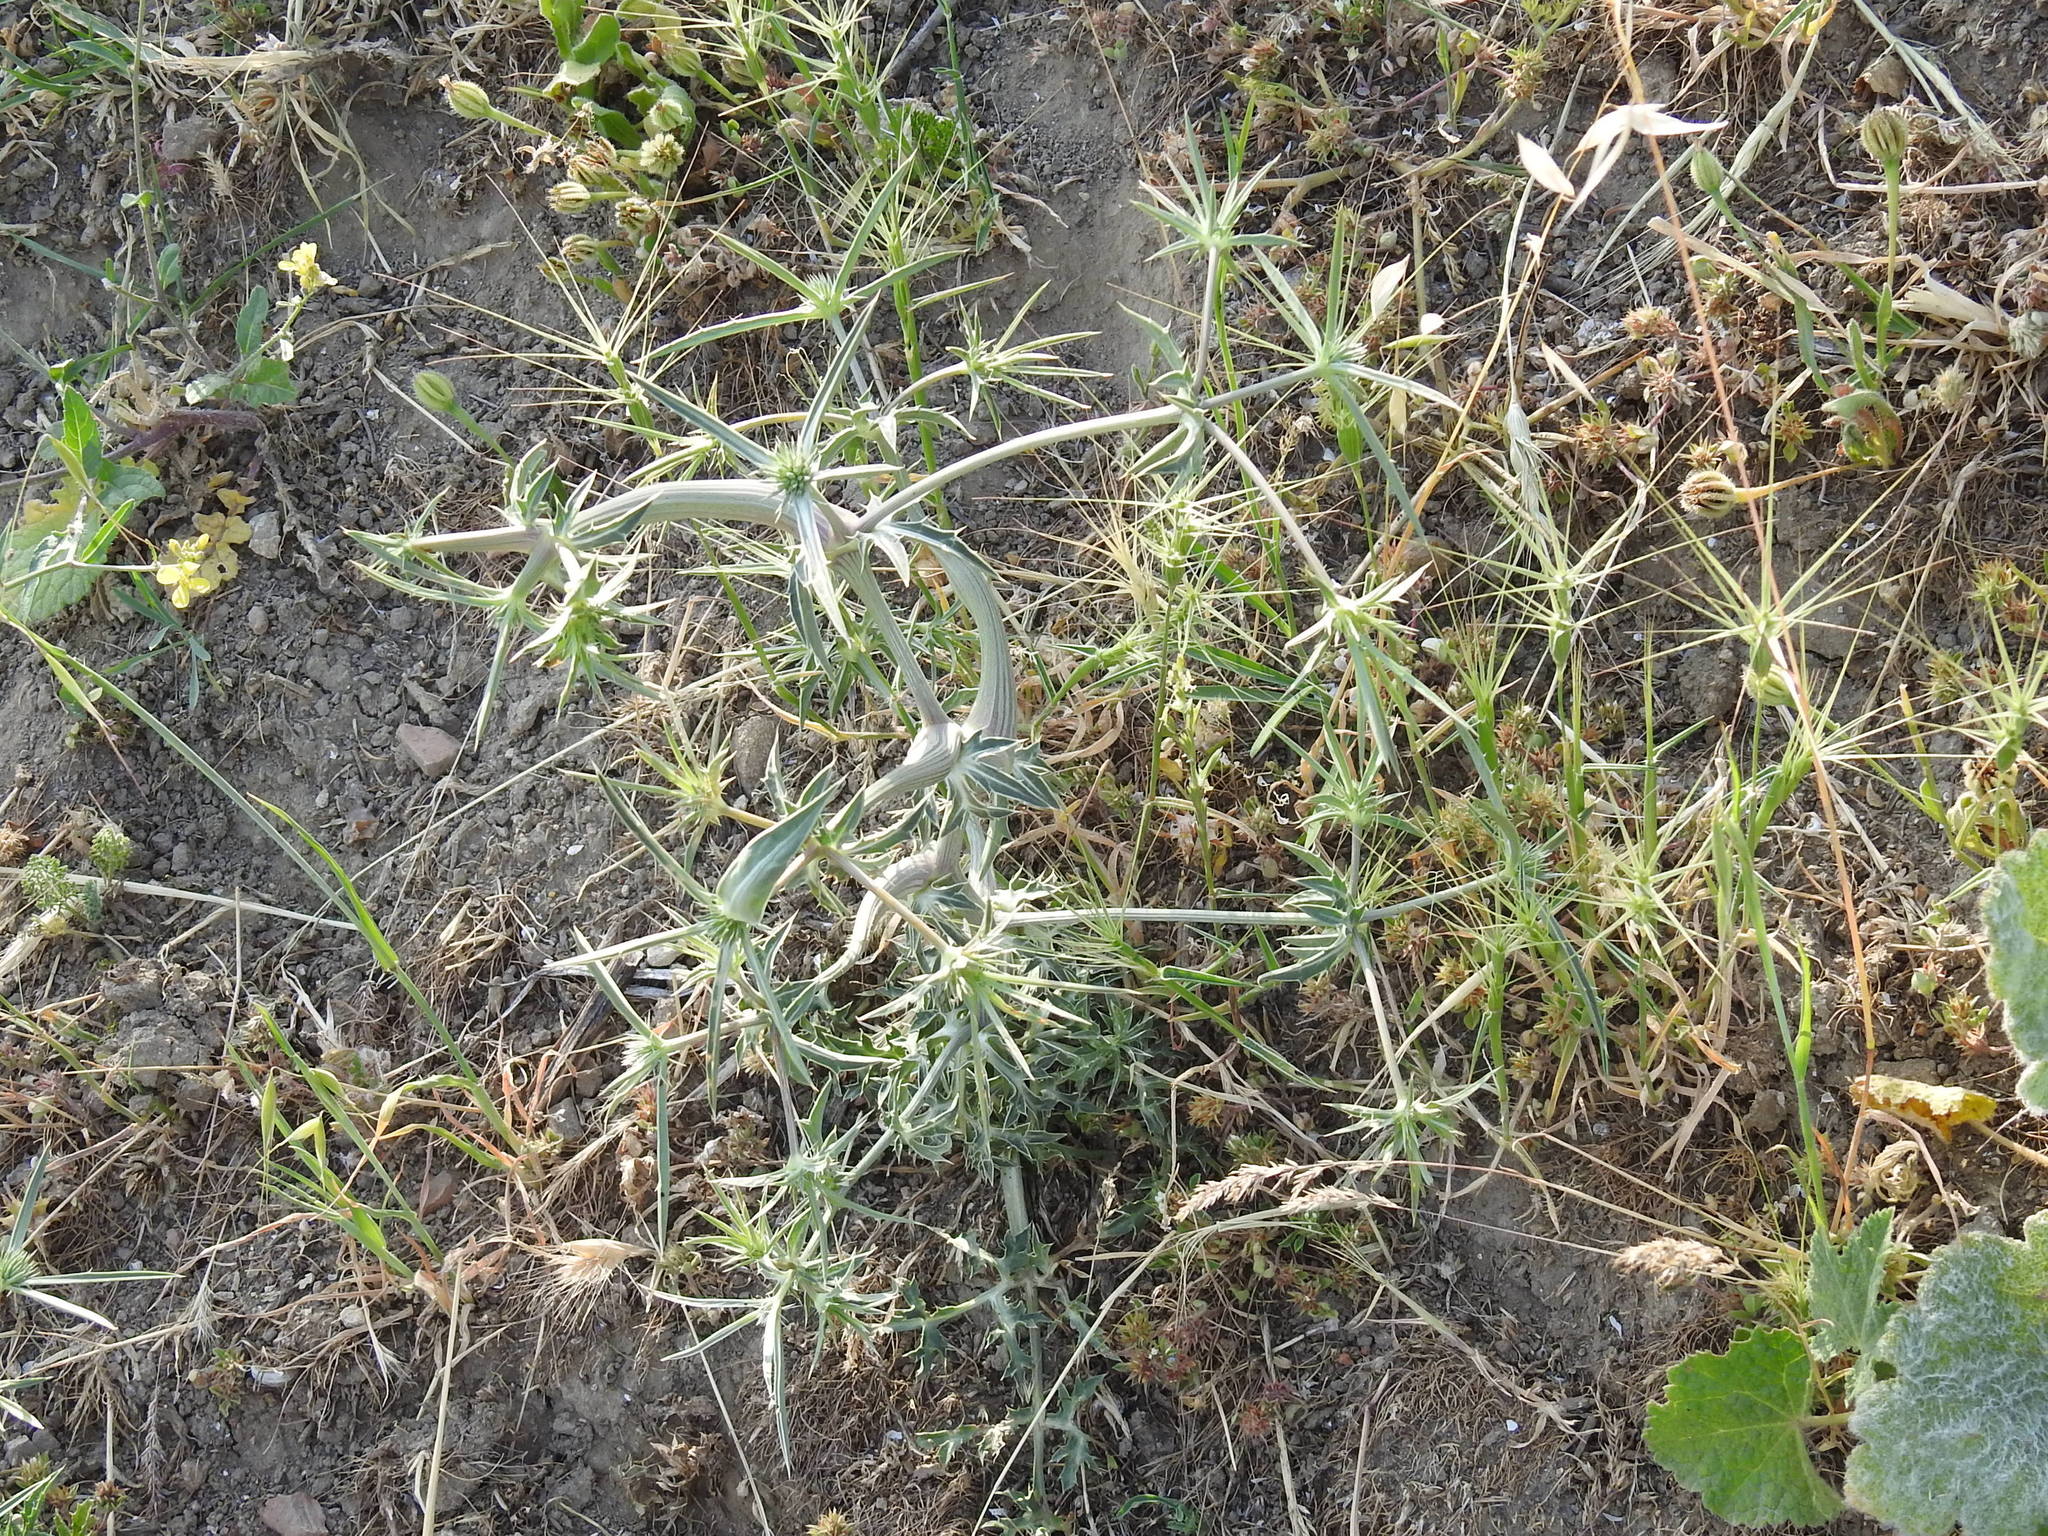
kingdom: Plantae
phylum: Tracheophyta
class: Magnoliopsida
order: Apiales
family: Apiaceae
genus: Eryngium
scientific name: Eryngium campestre
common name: Field eryngo
